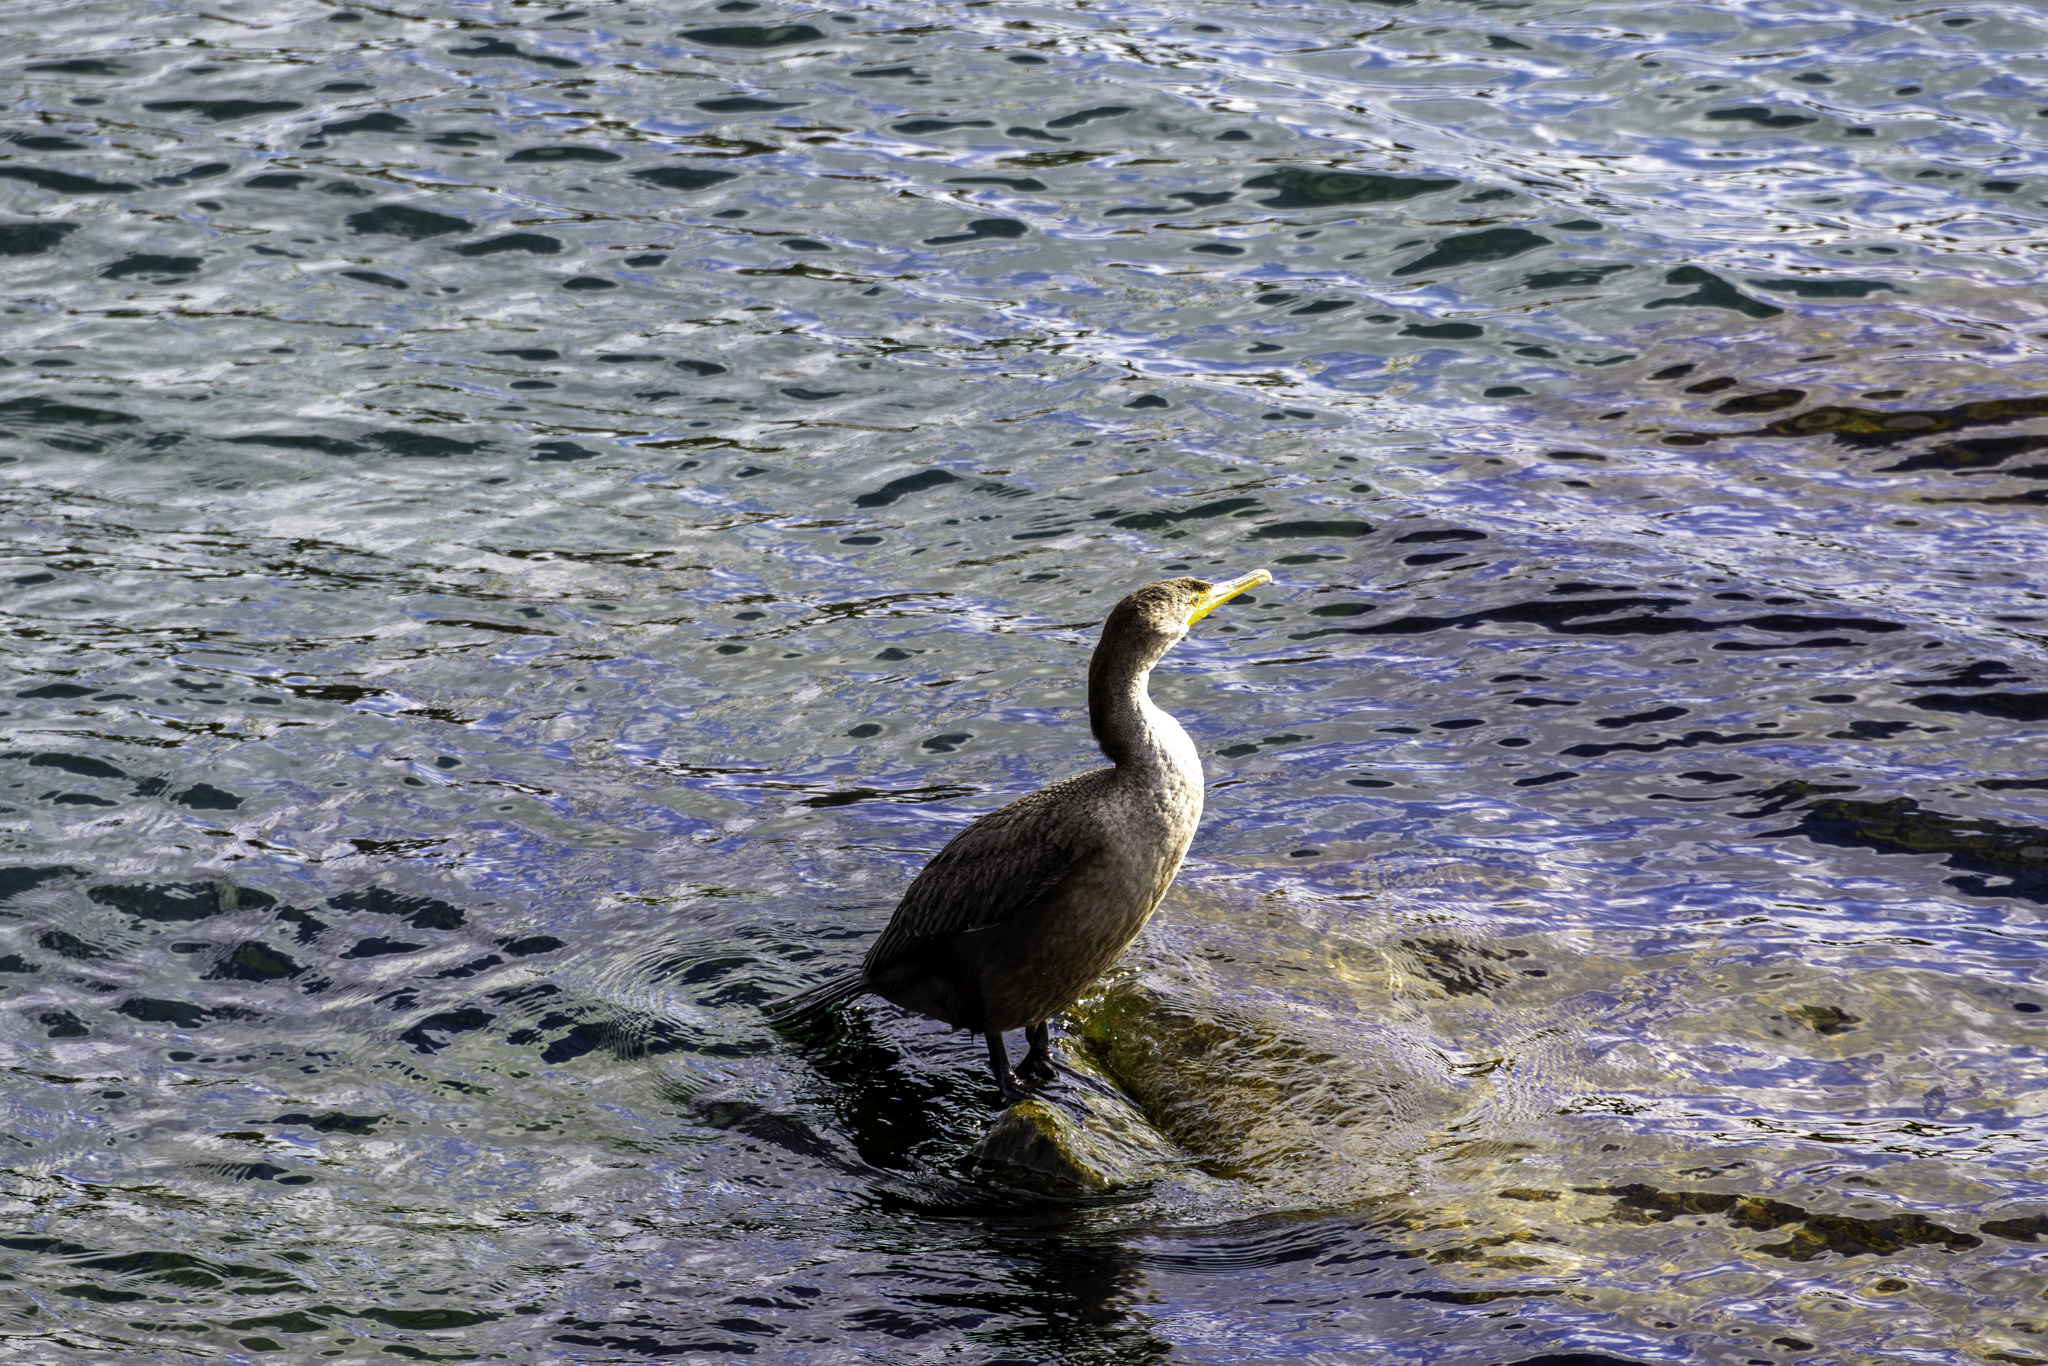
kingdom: Animalia
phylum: Chordata
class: Aves
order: Suliformes
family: Phalacrocoracidae
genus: Phalacrocorax
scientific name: Phalacrocorax auritus
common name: Double-crested cormorant
